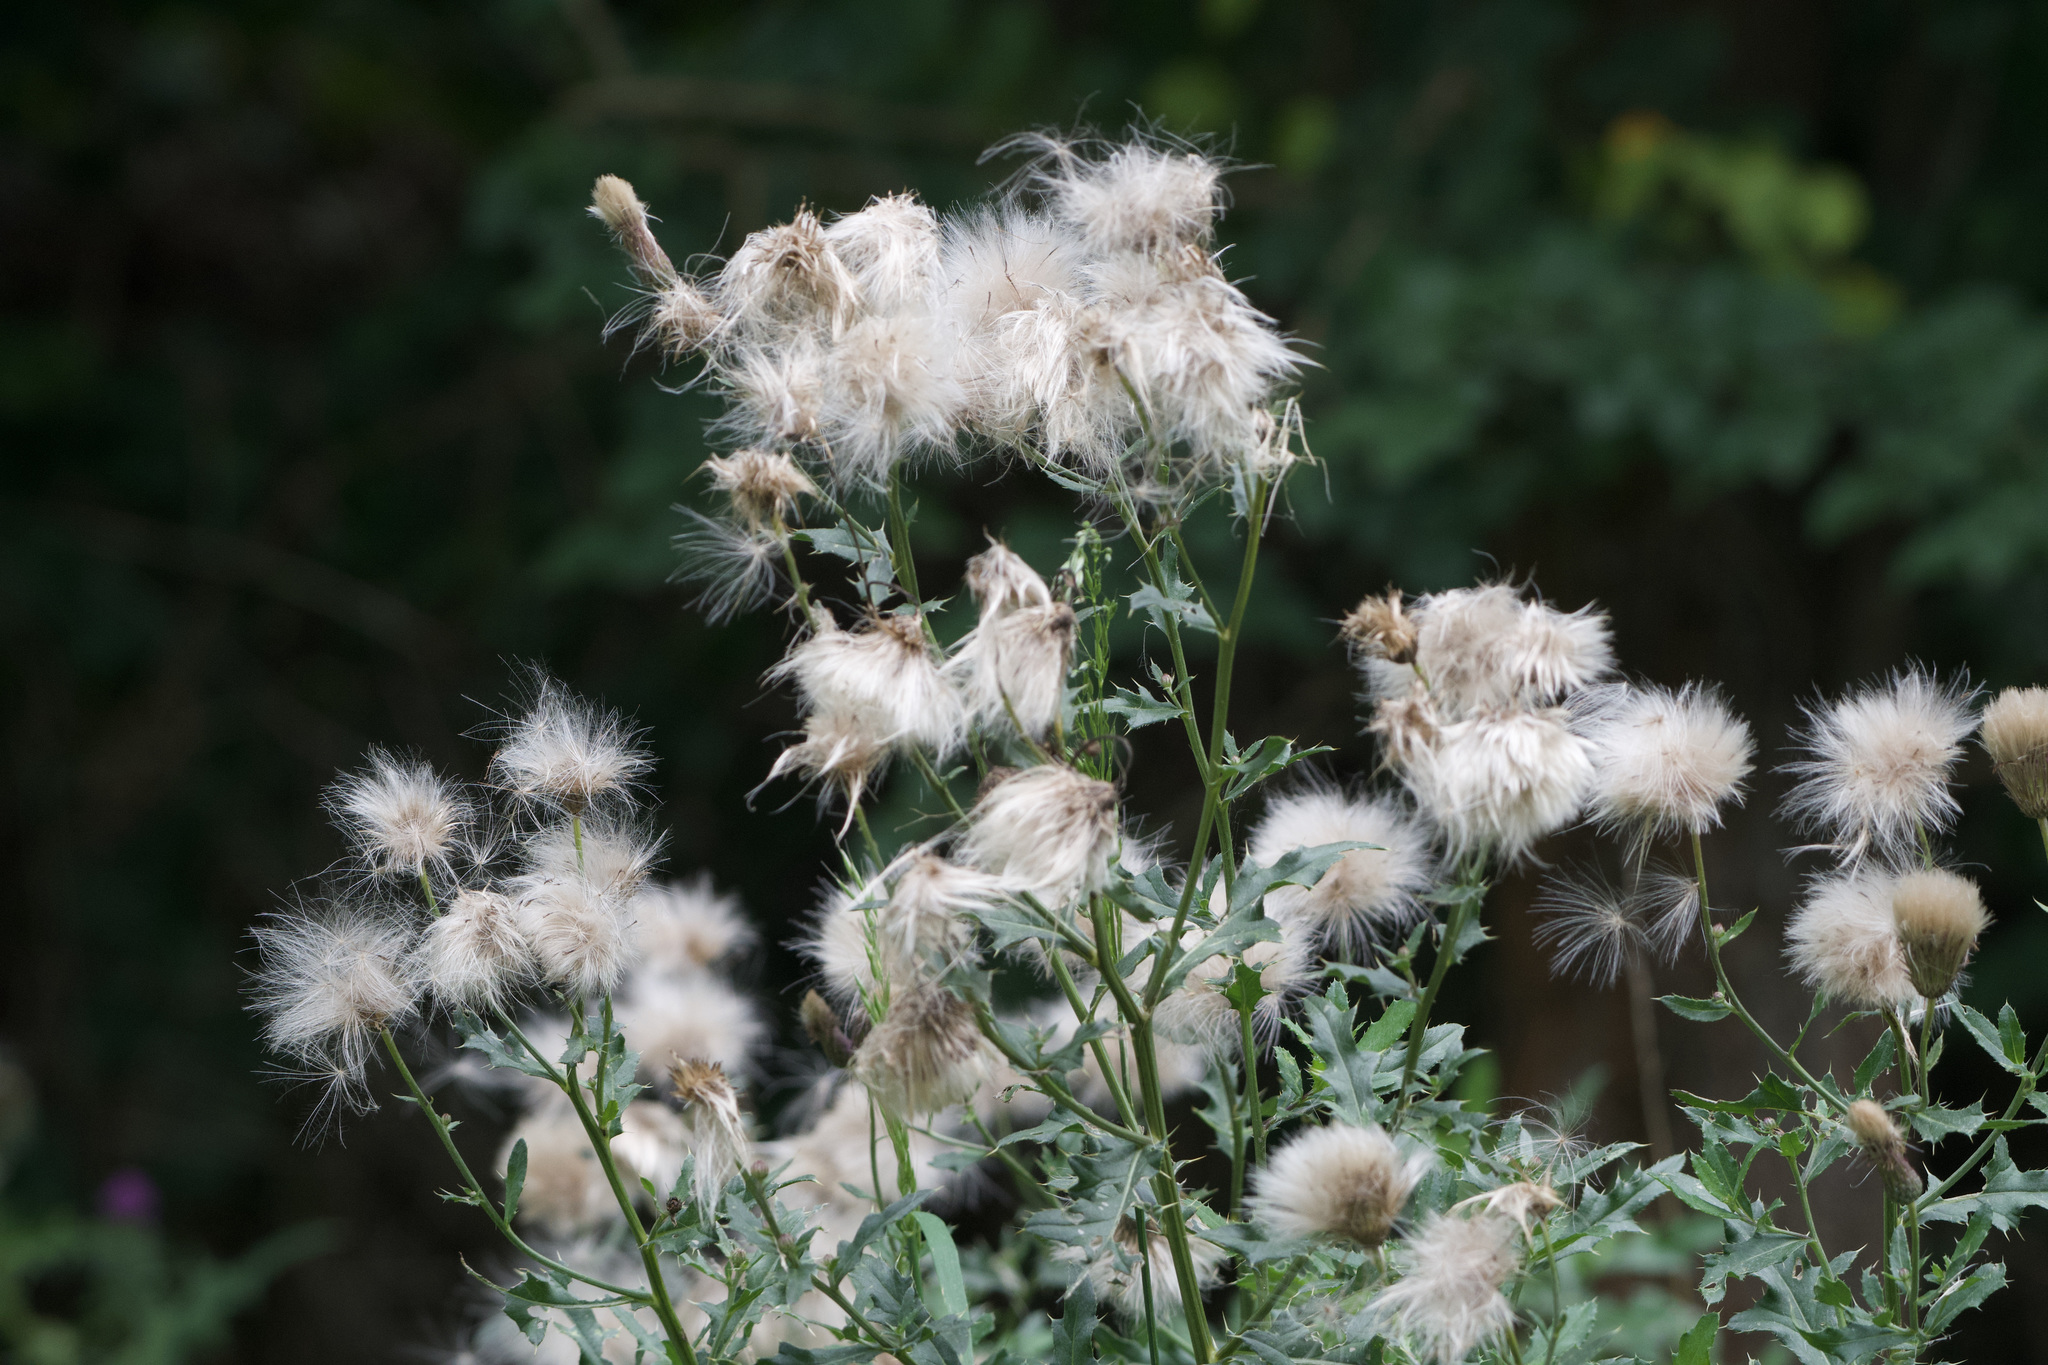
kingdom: Plantae
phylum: Tracheophyta
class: Magnoliopsida
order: Asterales
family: Asteraceae
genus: Cirsium
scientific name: Cirsium arvense
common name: Creeping thistle
